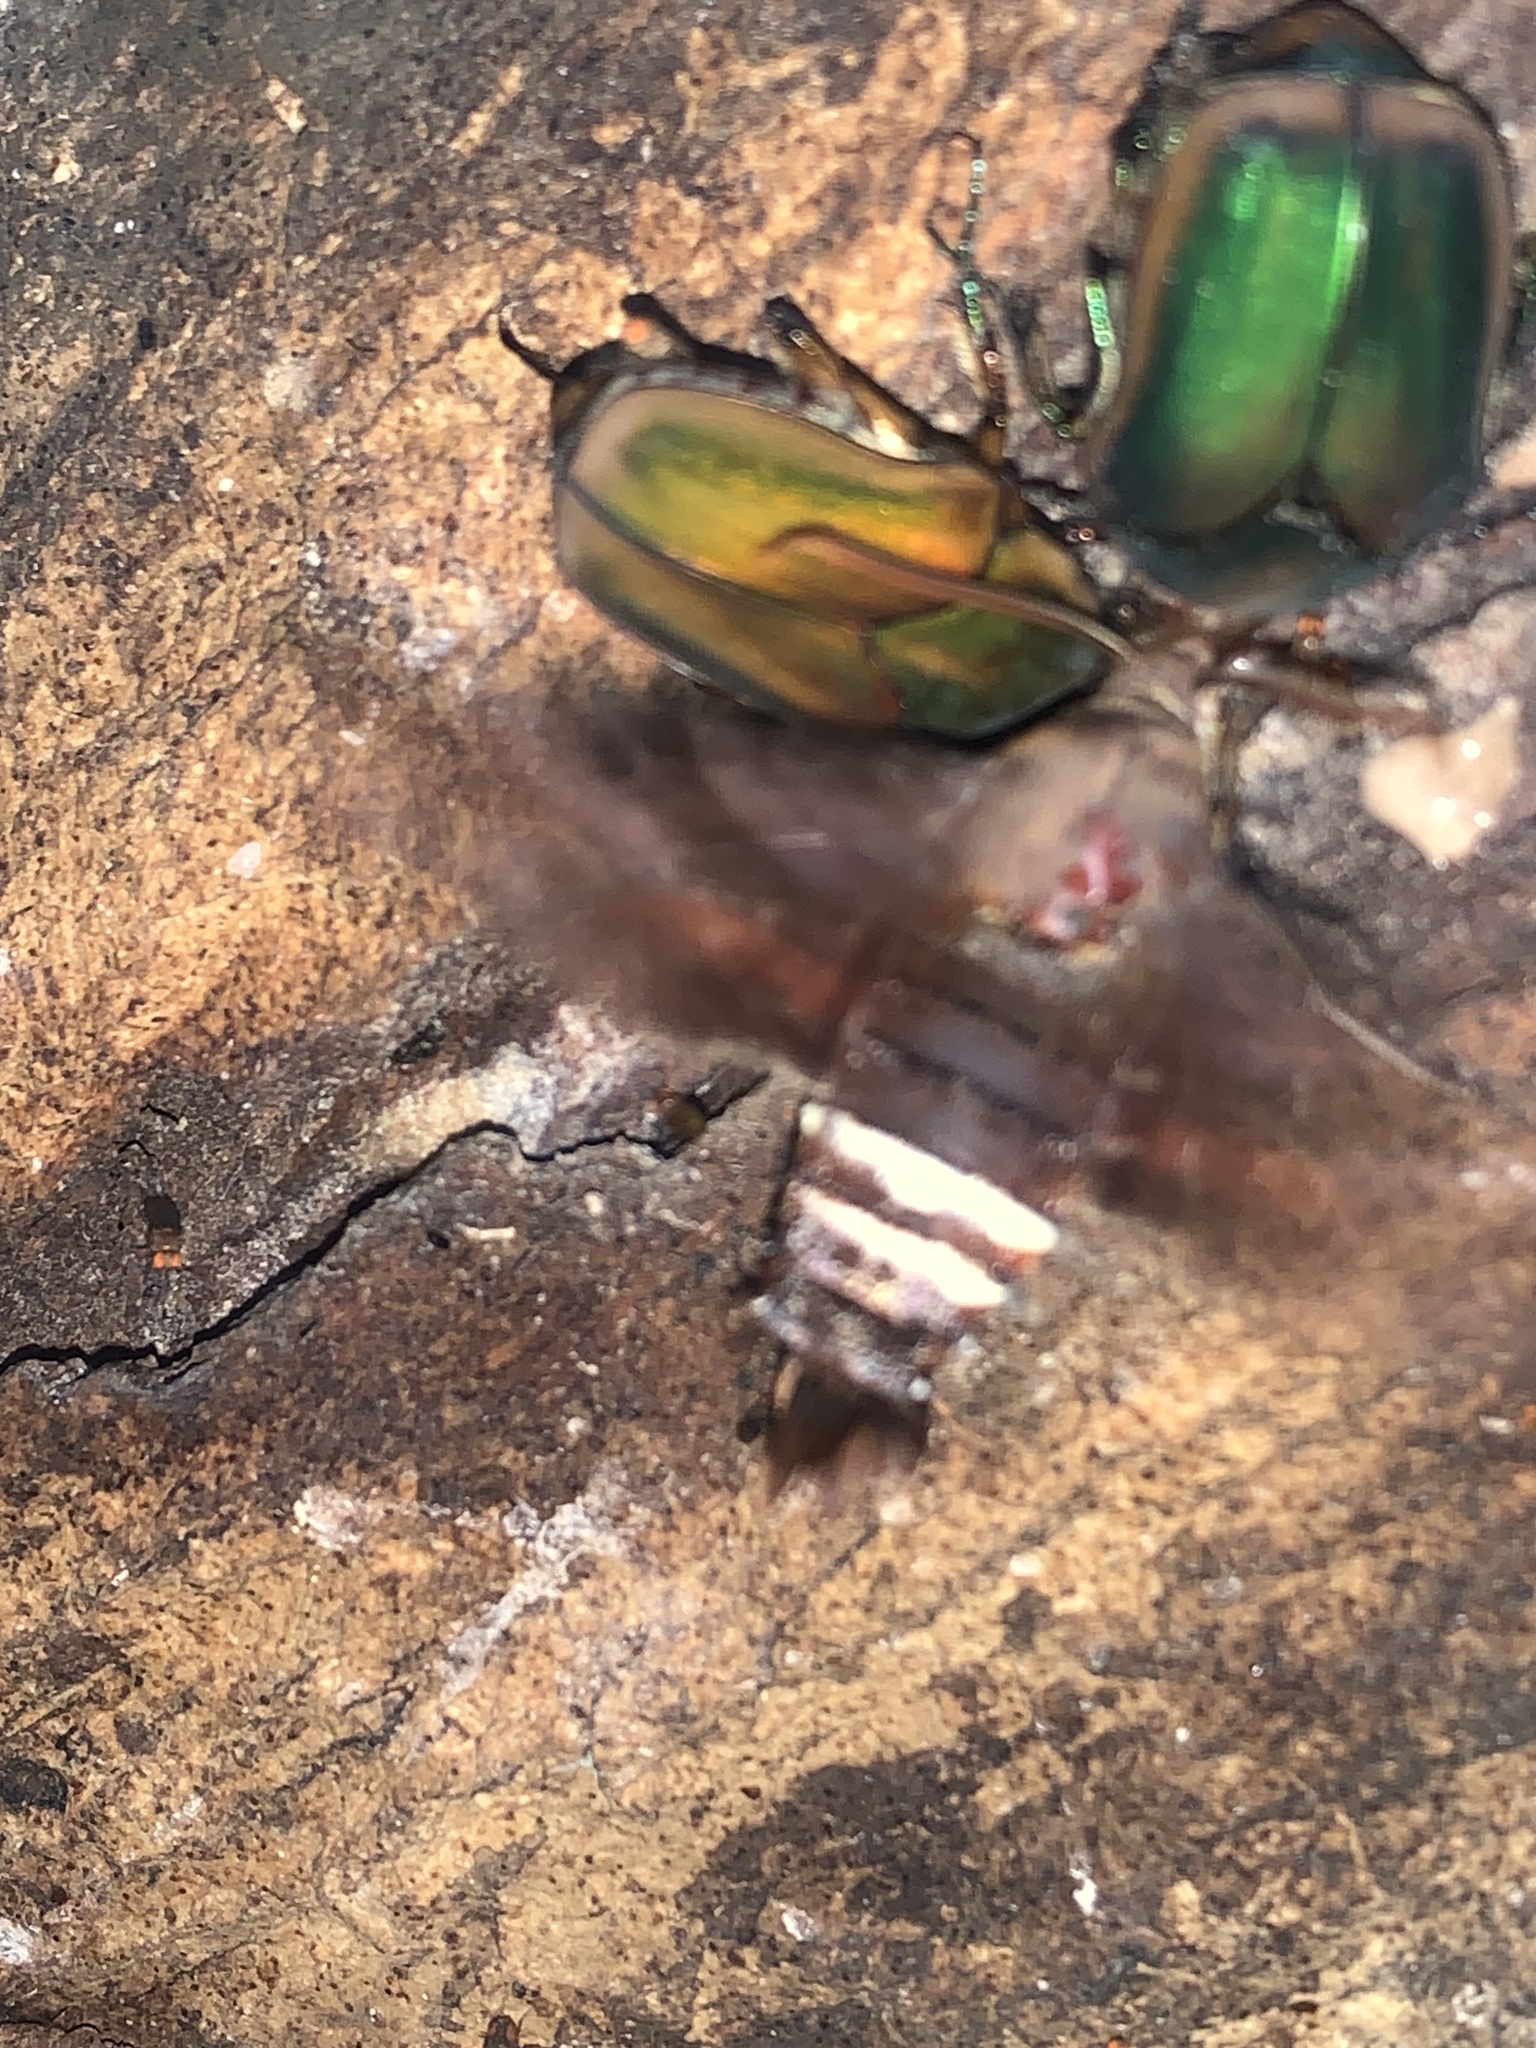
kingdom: Animalia
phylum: Arthropoda
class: Insecta
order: Lepidoptera
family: Sphingidae
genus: Amphion
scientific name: Amphion floridensis
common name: Nessus sphinx
